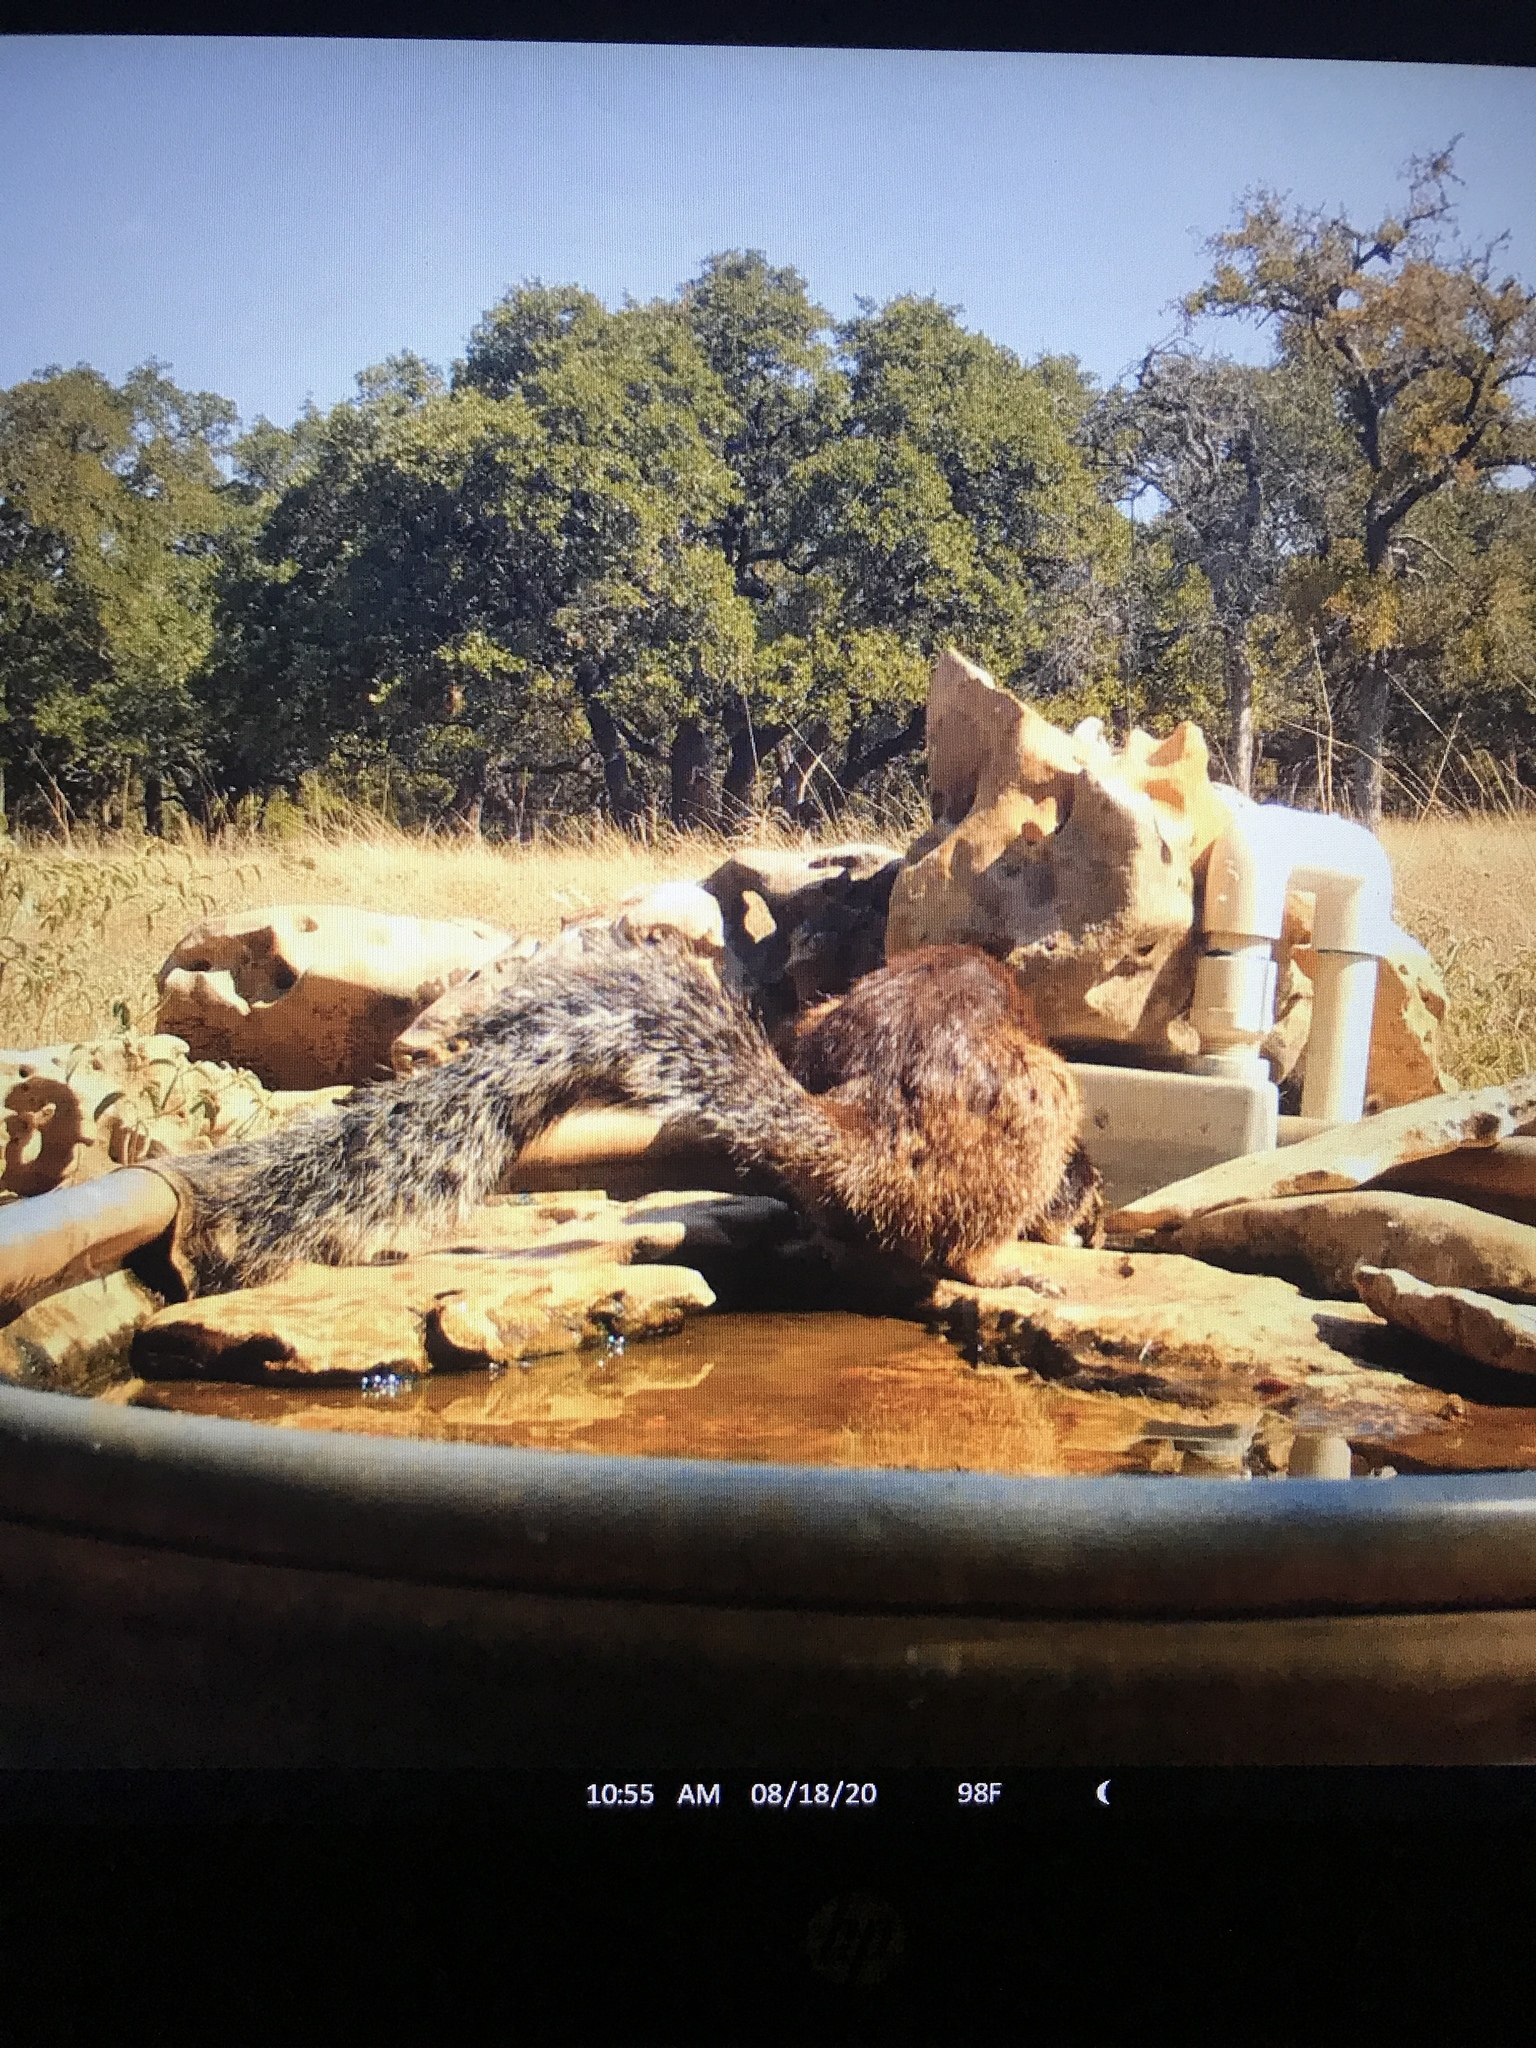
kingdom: Animalia
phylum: Chordata
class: Mammalia
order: Rodentia
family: Sciuridae
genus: Otospermophilus
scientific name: Otospermophilus variegatus
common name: Rock squirrel
